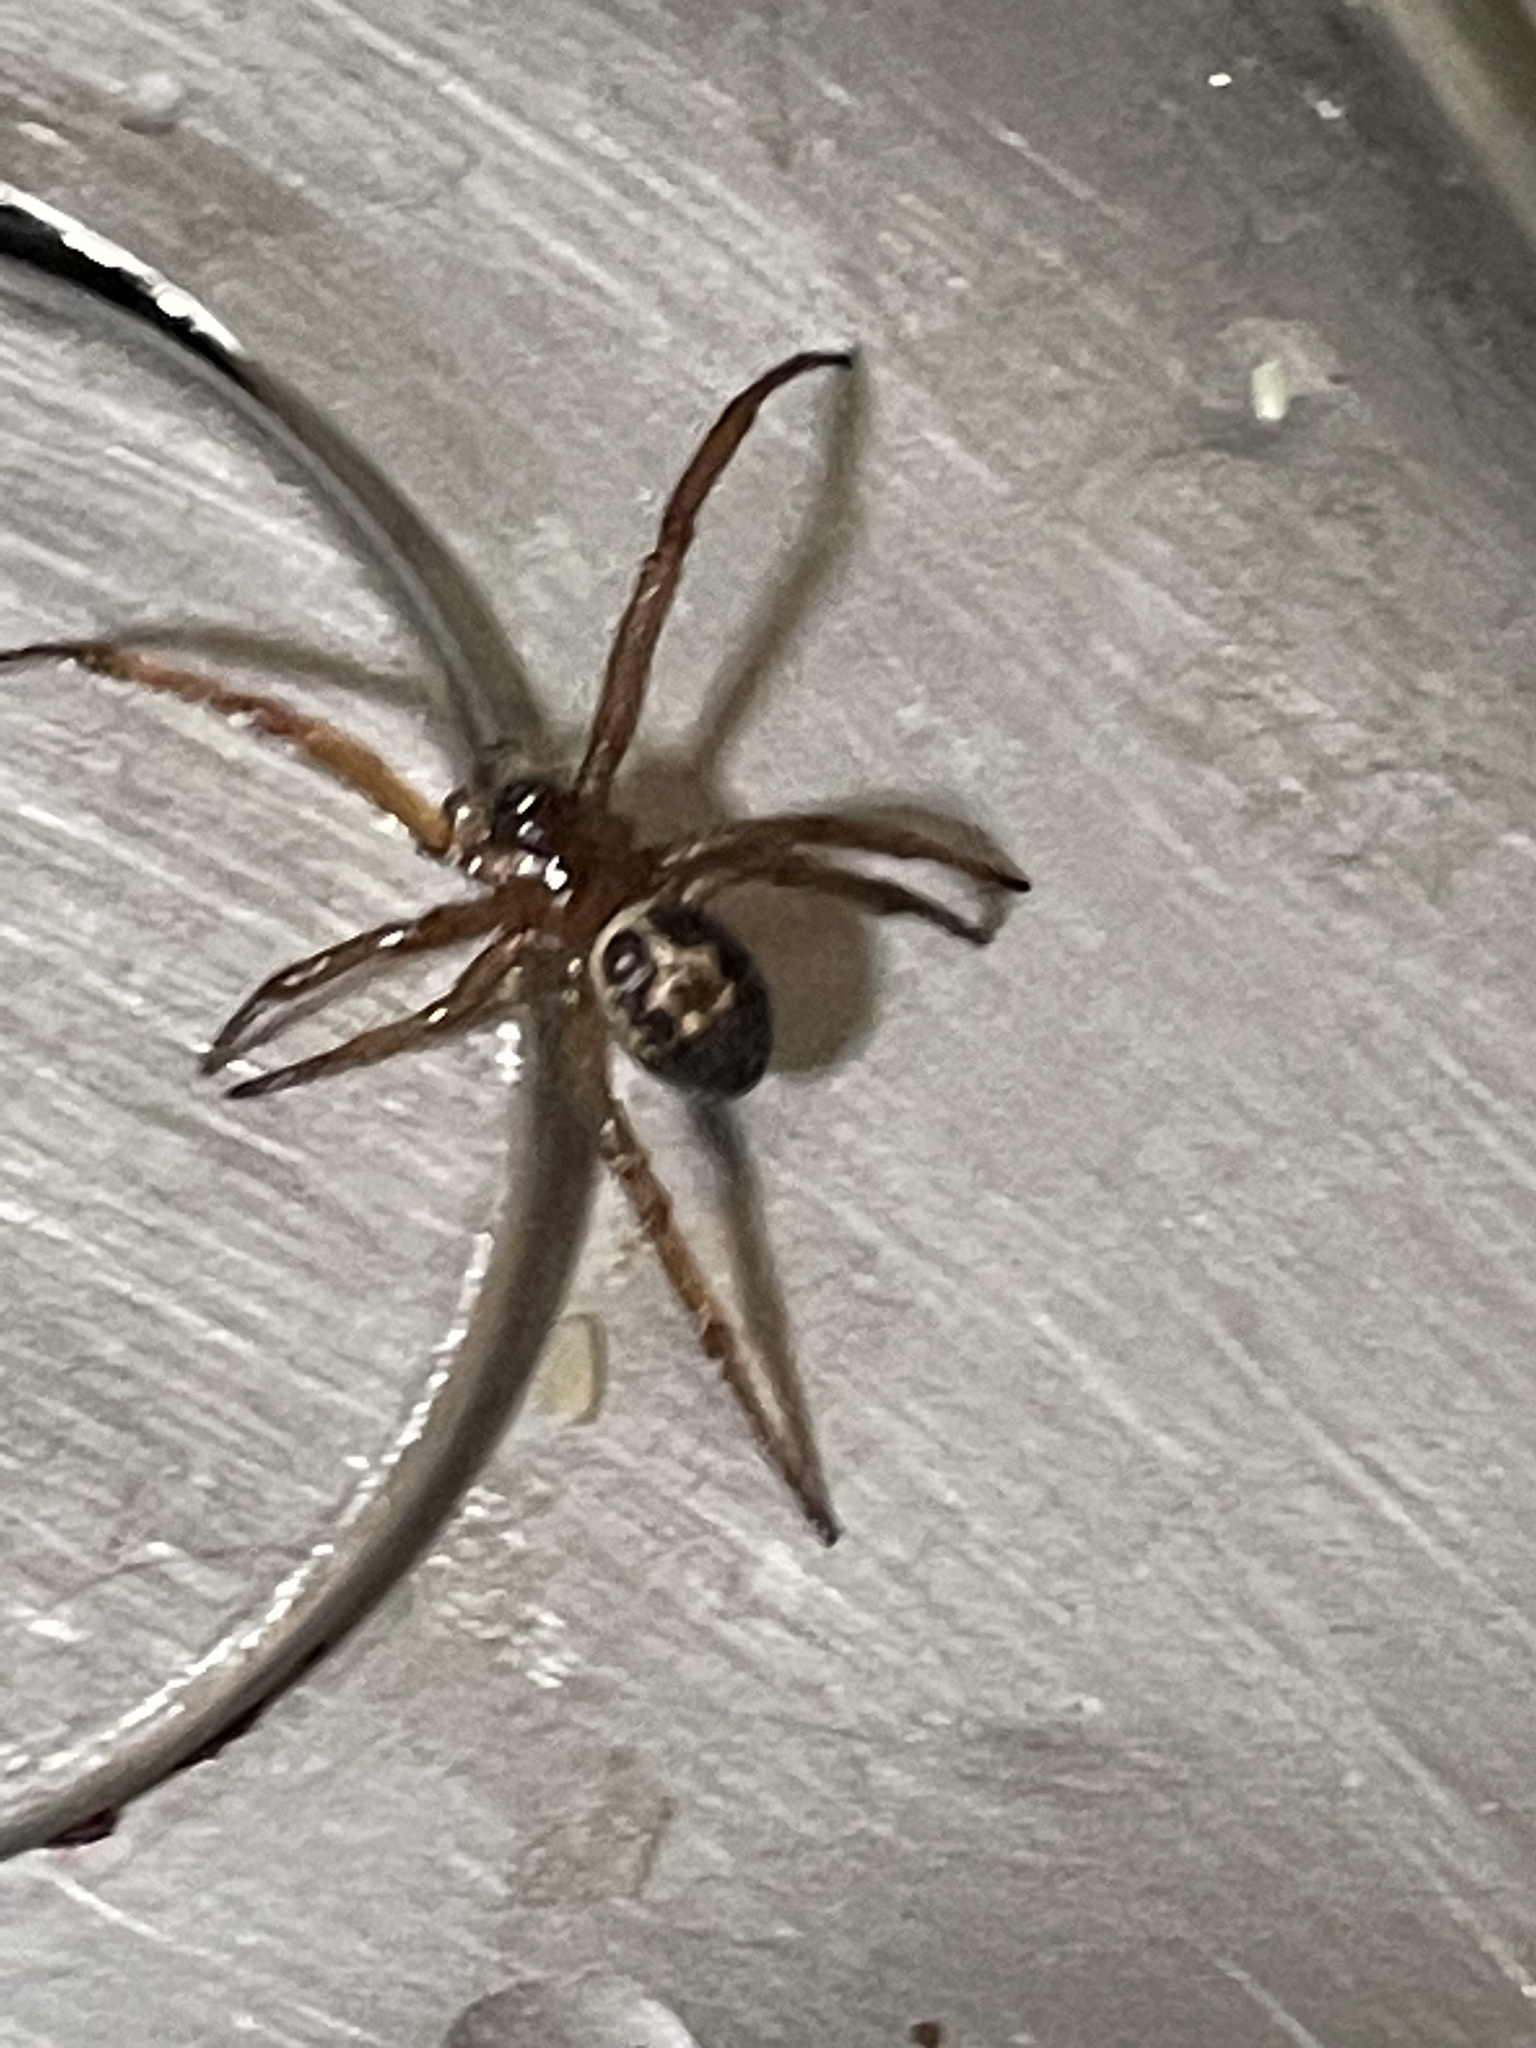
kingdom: Animalia
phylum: Arthropoda
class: Arachnida
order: Araneae
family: Theridiidae
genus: Steatoda
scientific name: Steatoda nobilis
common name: Cobweb weaver
